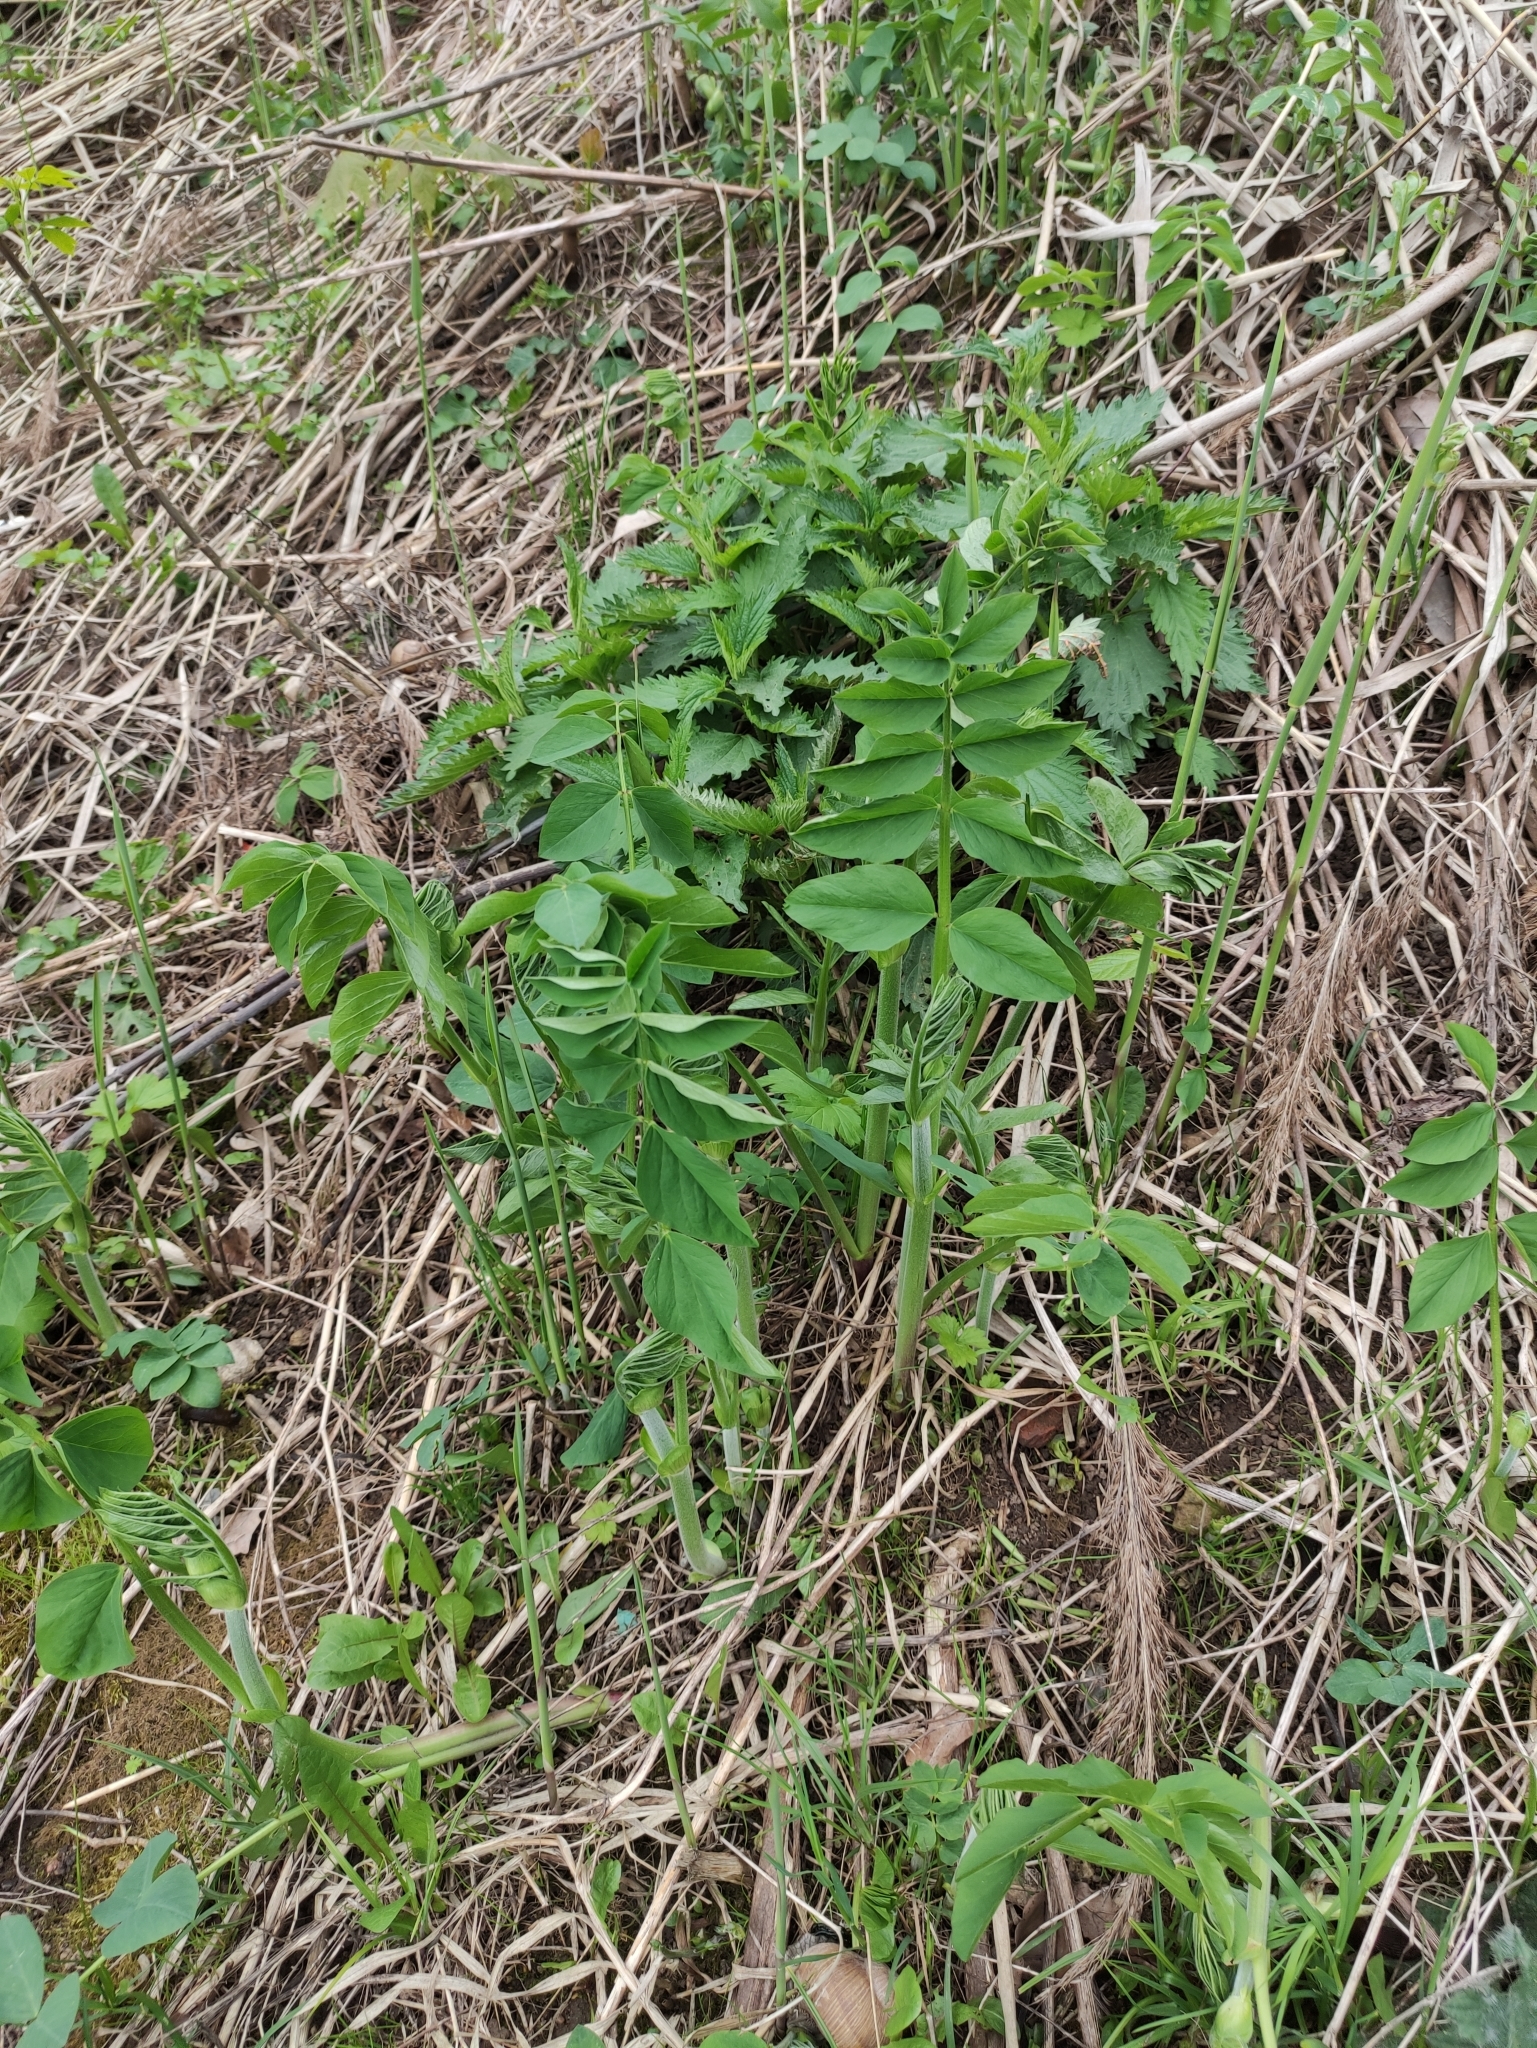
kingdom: Plantae
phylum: Tracheophyta
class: Magnoliopsida
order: Fabales
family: Fabaceae
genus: Galega
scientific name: Galega orientalis
